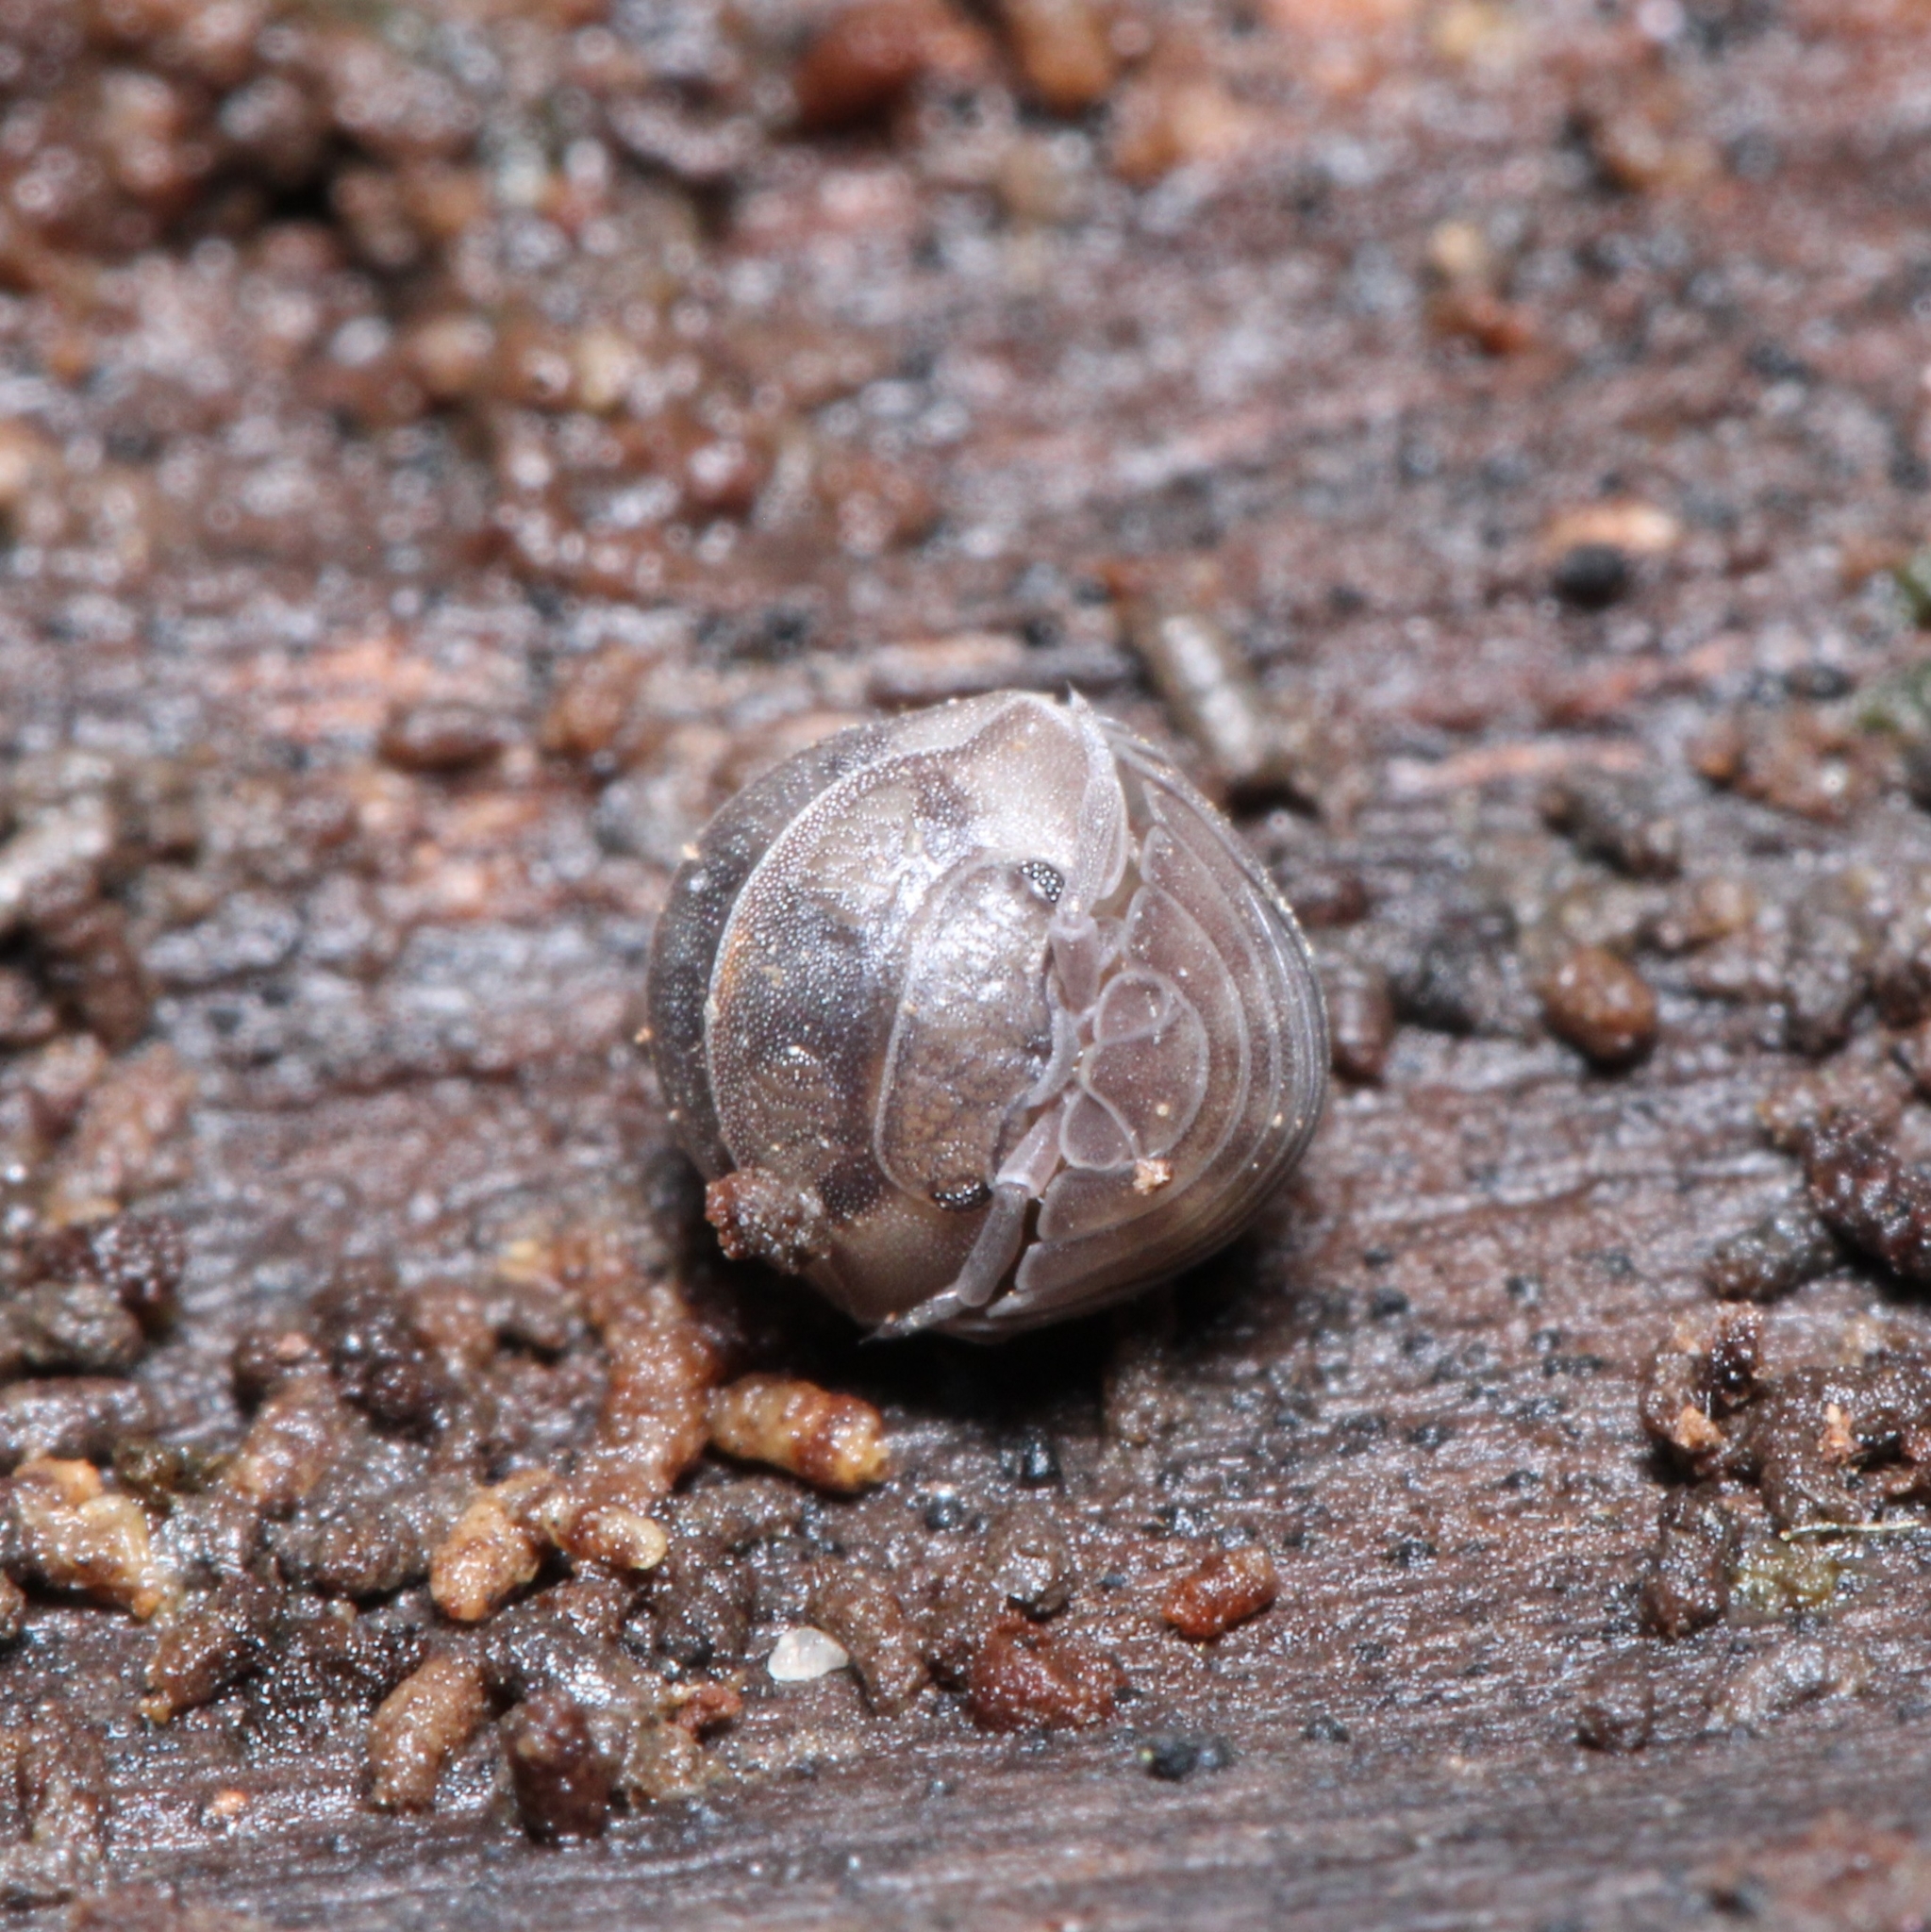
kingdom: Animalia
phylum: Arthropoda
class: Malacostraca
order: Isopoda
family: Armadillidiidae
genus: Armadillidium
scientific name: Armadillidium nasatum
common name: Isopod
